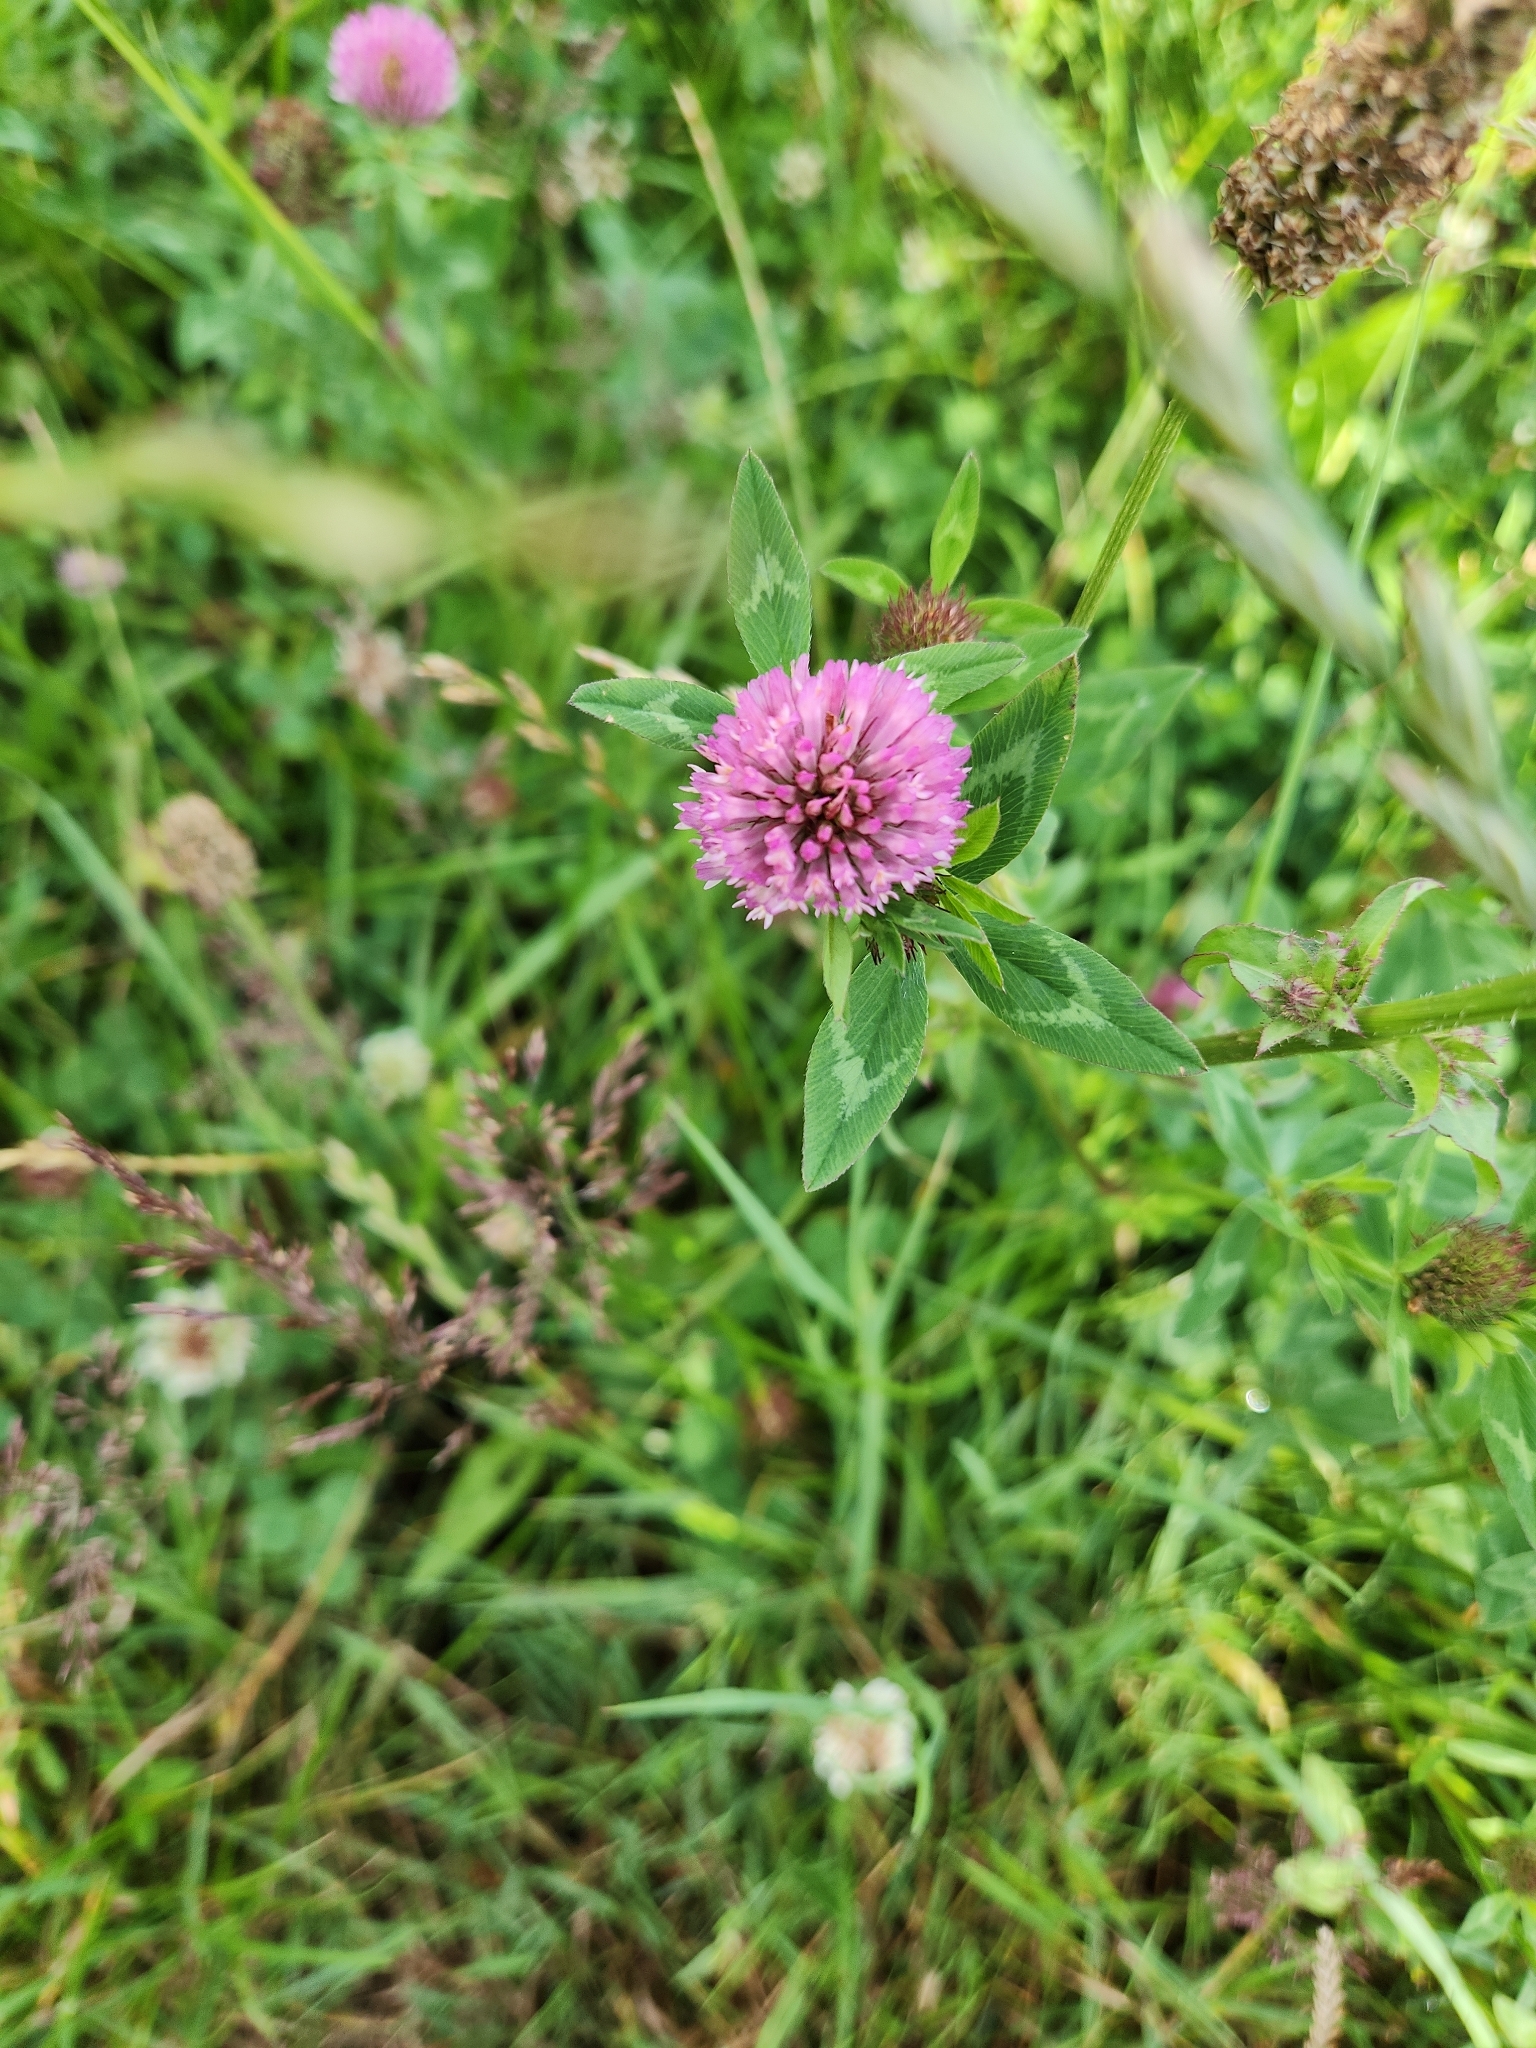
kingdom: Plantae
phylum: Tracheophyta
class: Magnoliopsida
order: Fabales
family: Fabaceae
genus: Trifolium
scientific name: Trifolium pratense
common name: Red clover
